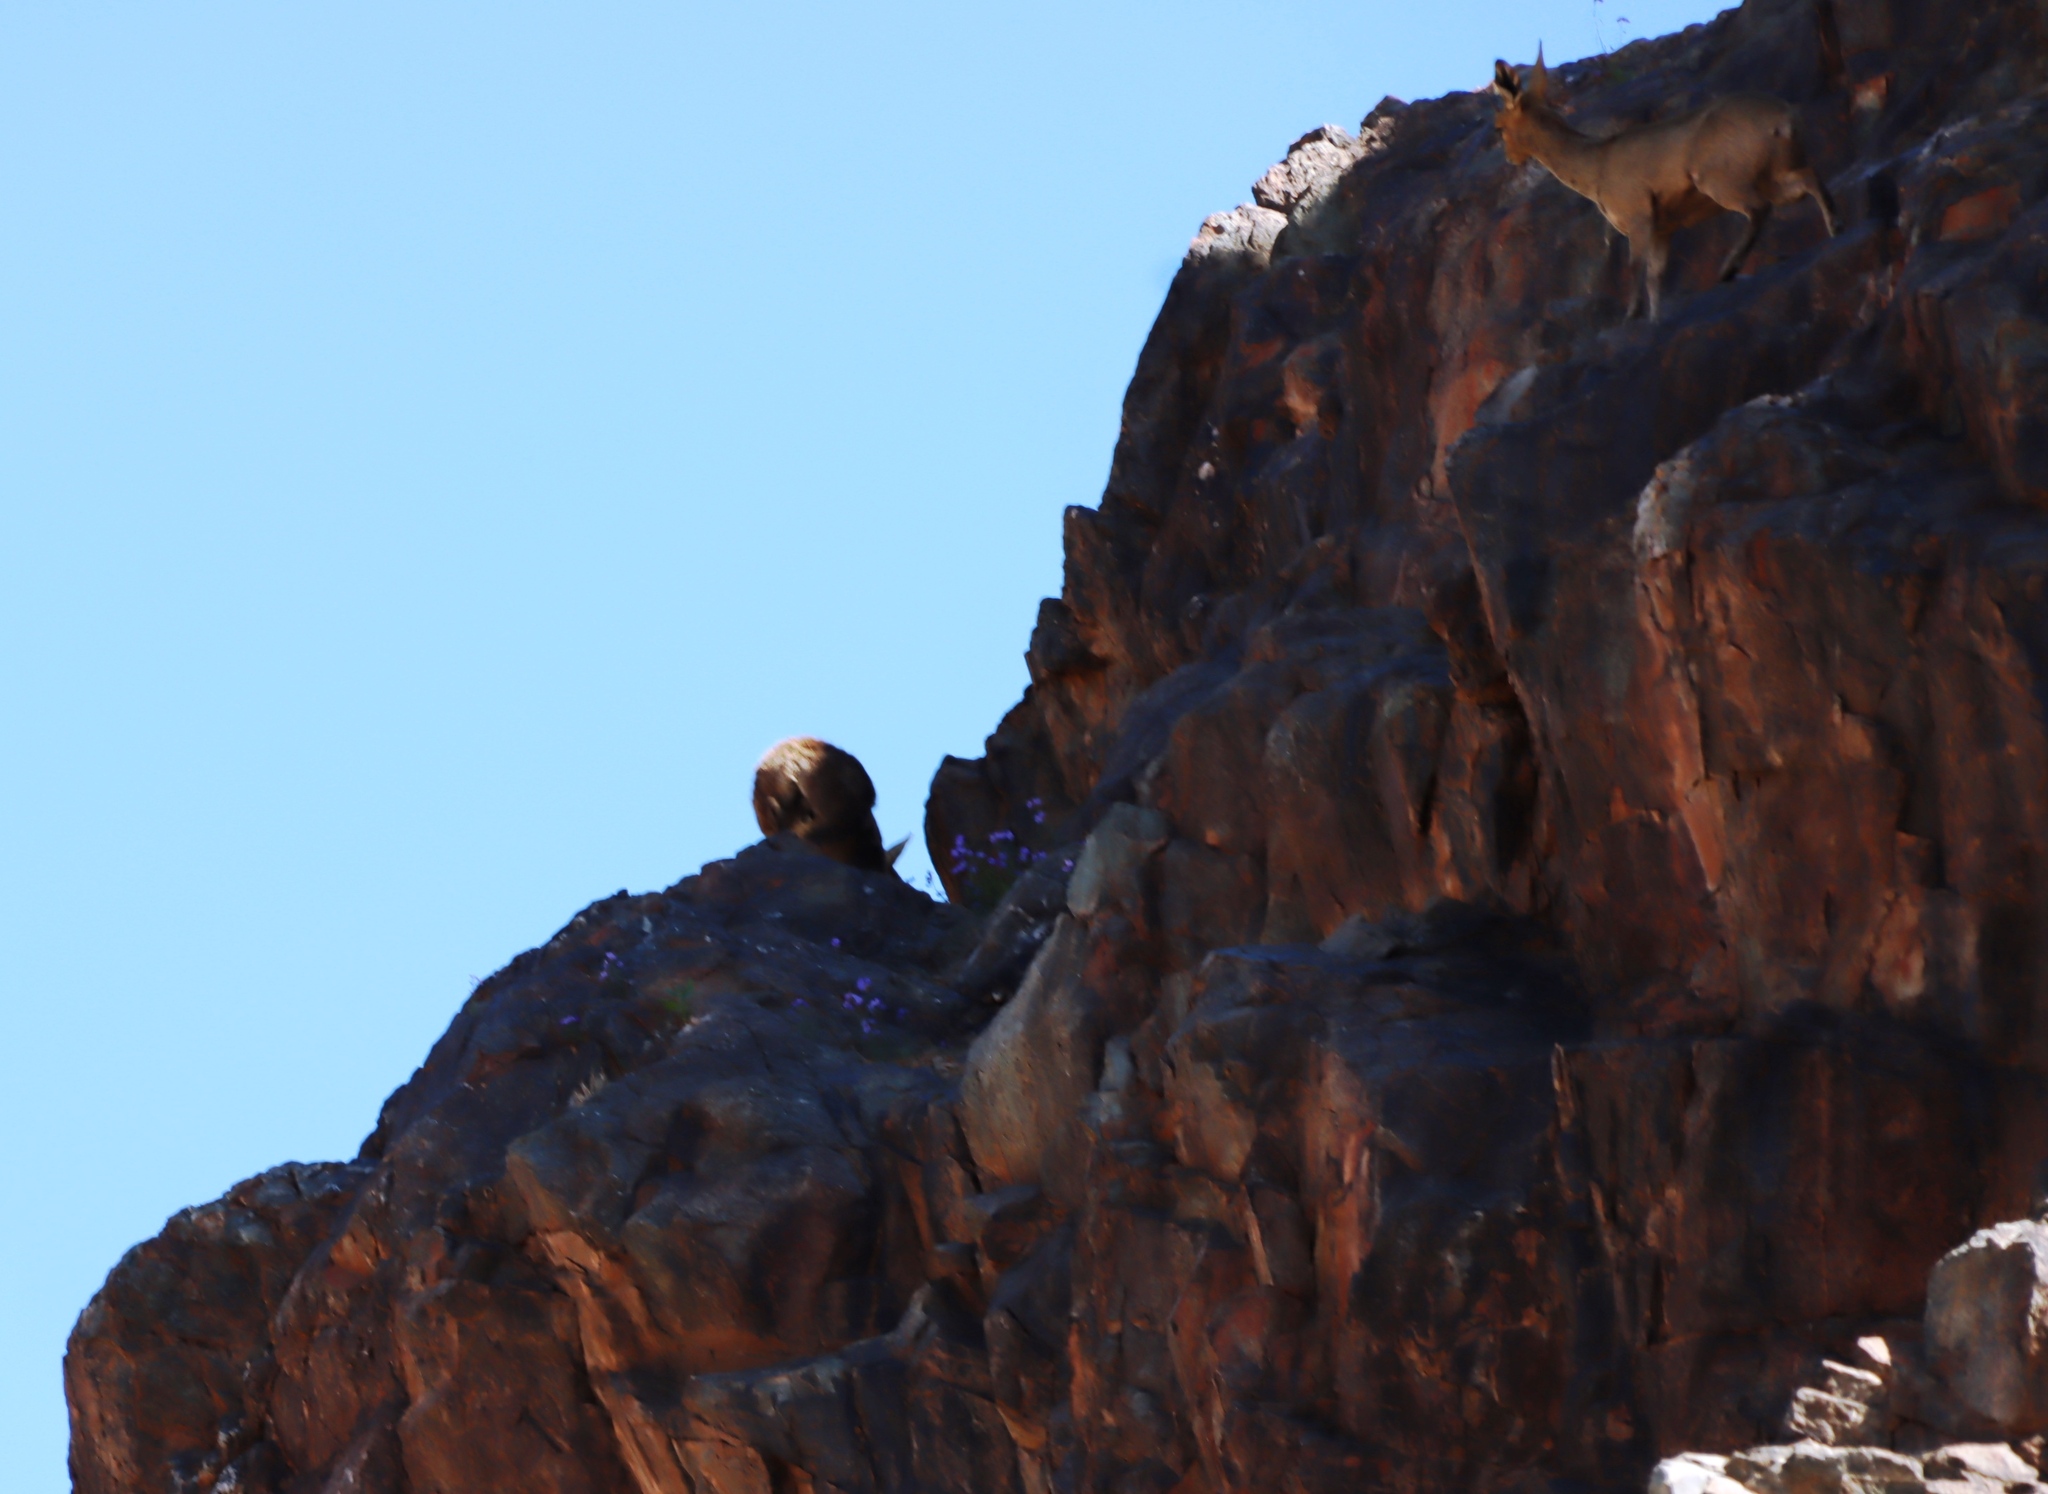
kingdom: Animalia
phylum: Chordata
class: Mammalia
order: Artiodactyla
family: Bovidae
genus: Oreotragus
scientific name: Oreotragus oreotragus
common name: Klipspringer
